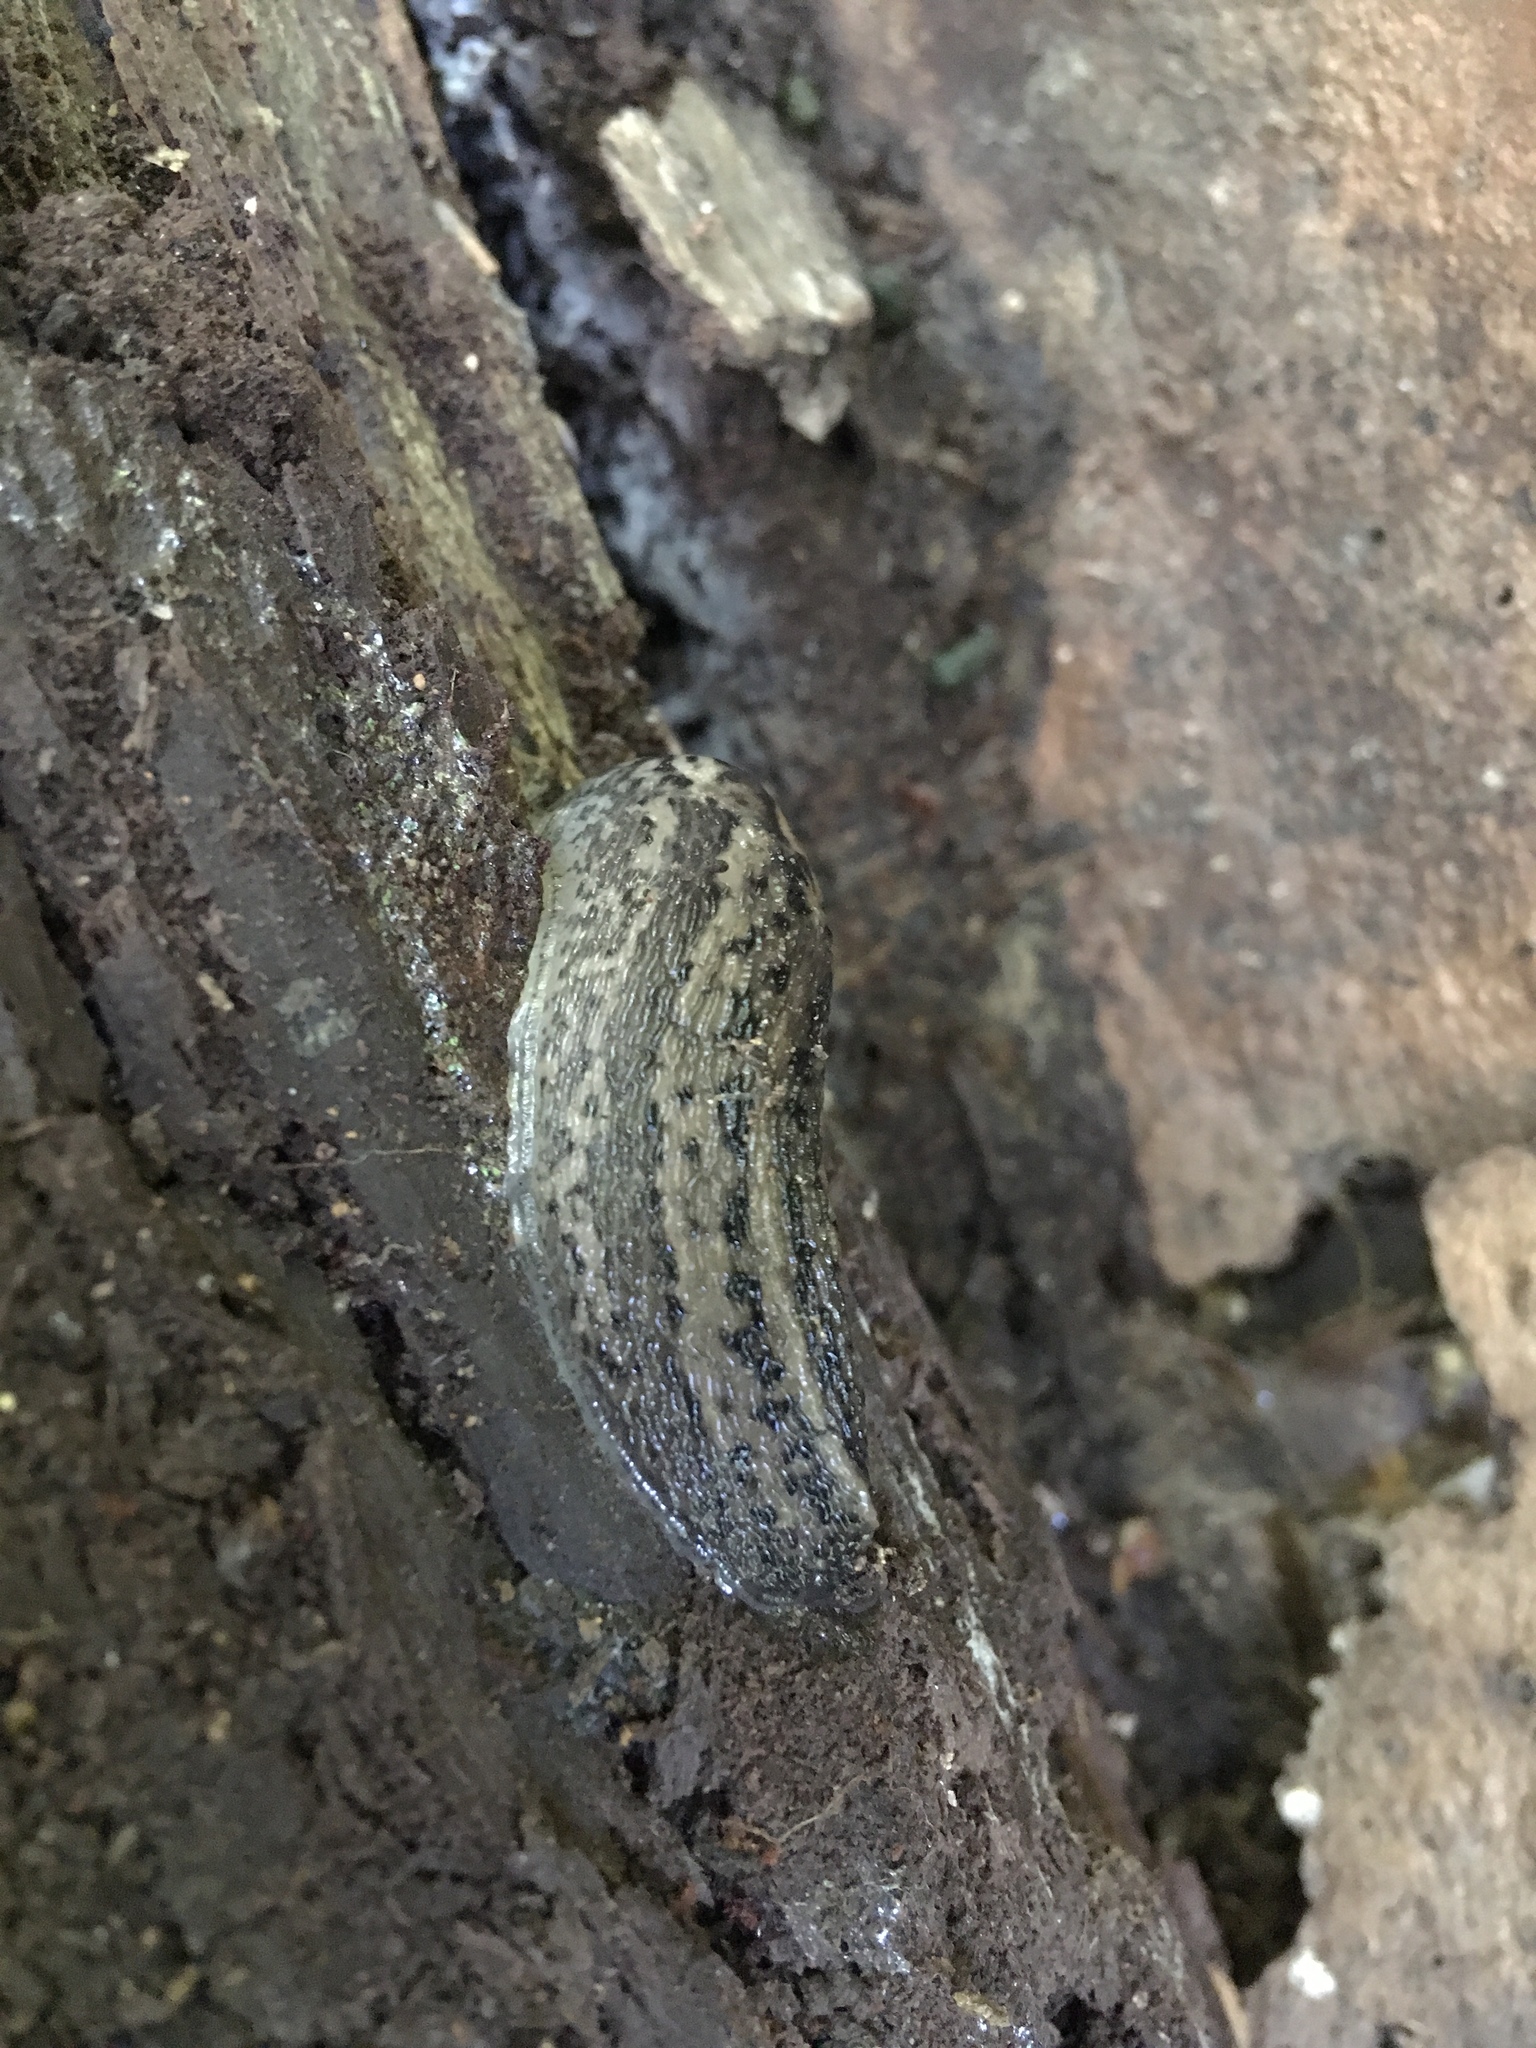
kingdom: Animalia
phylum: Mollusca
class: Gastropoda
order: Stylommatophora
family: Limacidae
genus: Limax
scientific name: Limax maximus
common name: Great grey slug
